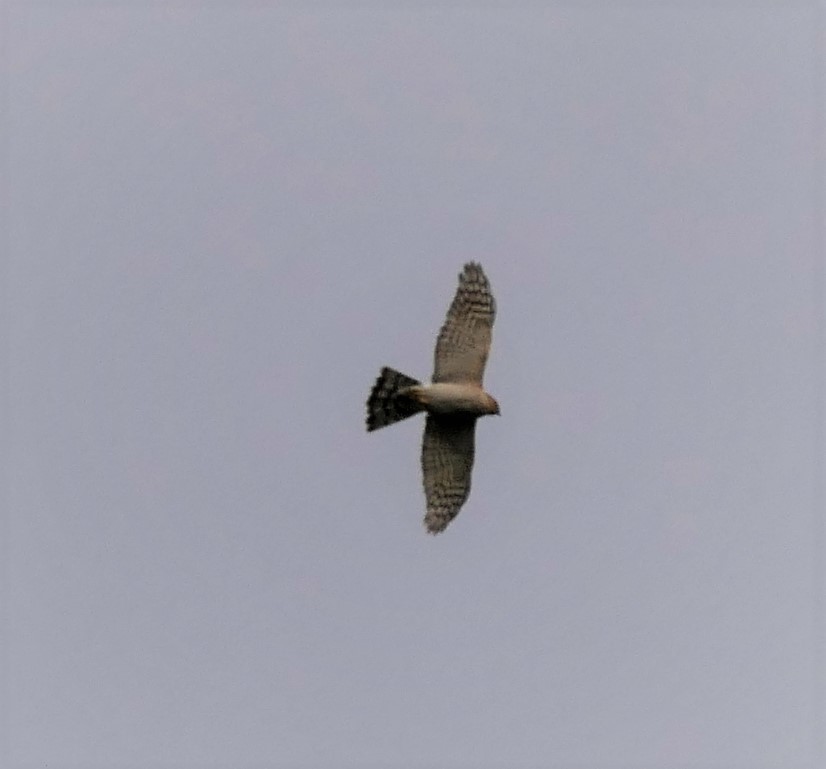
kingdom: Animalia
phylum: Chordata
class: Aves
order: Accipitriformes
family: Accipitridae
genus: Accipiter
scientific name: Accipiter nisus
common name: Eurasian sparrowhawk
